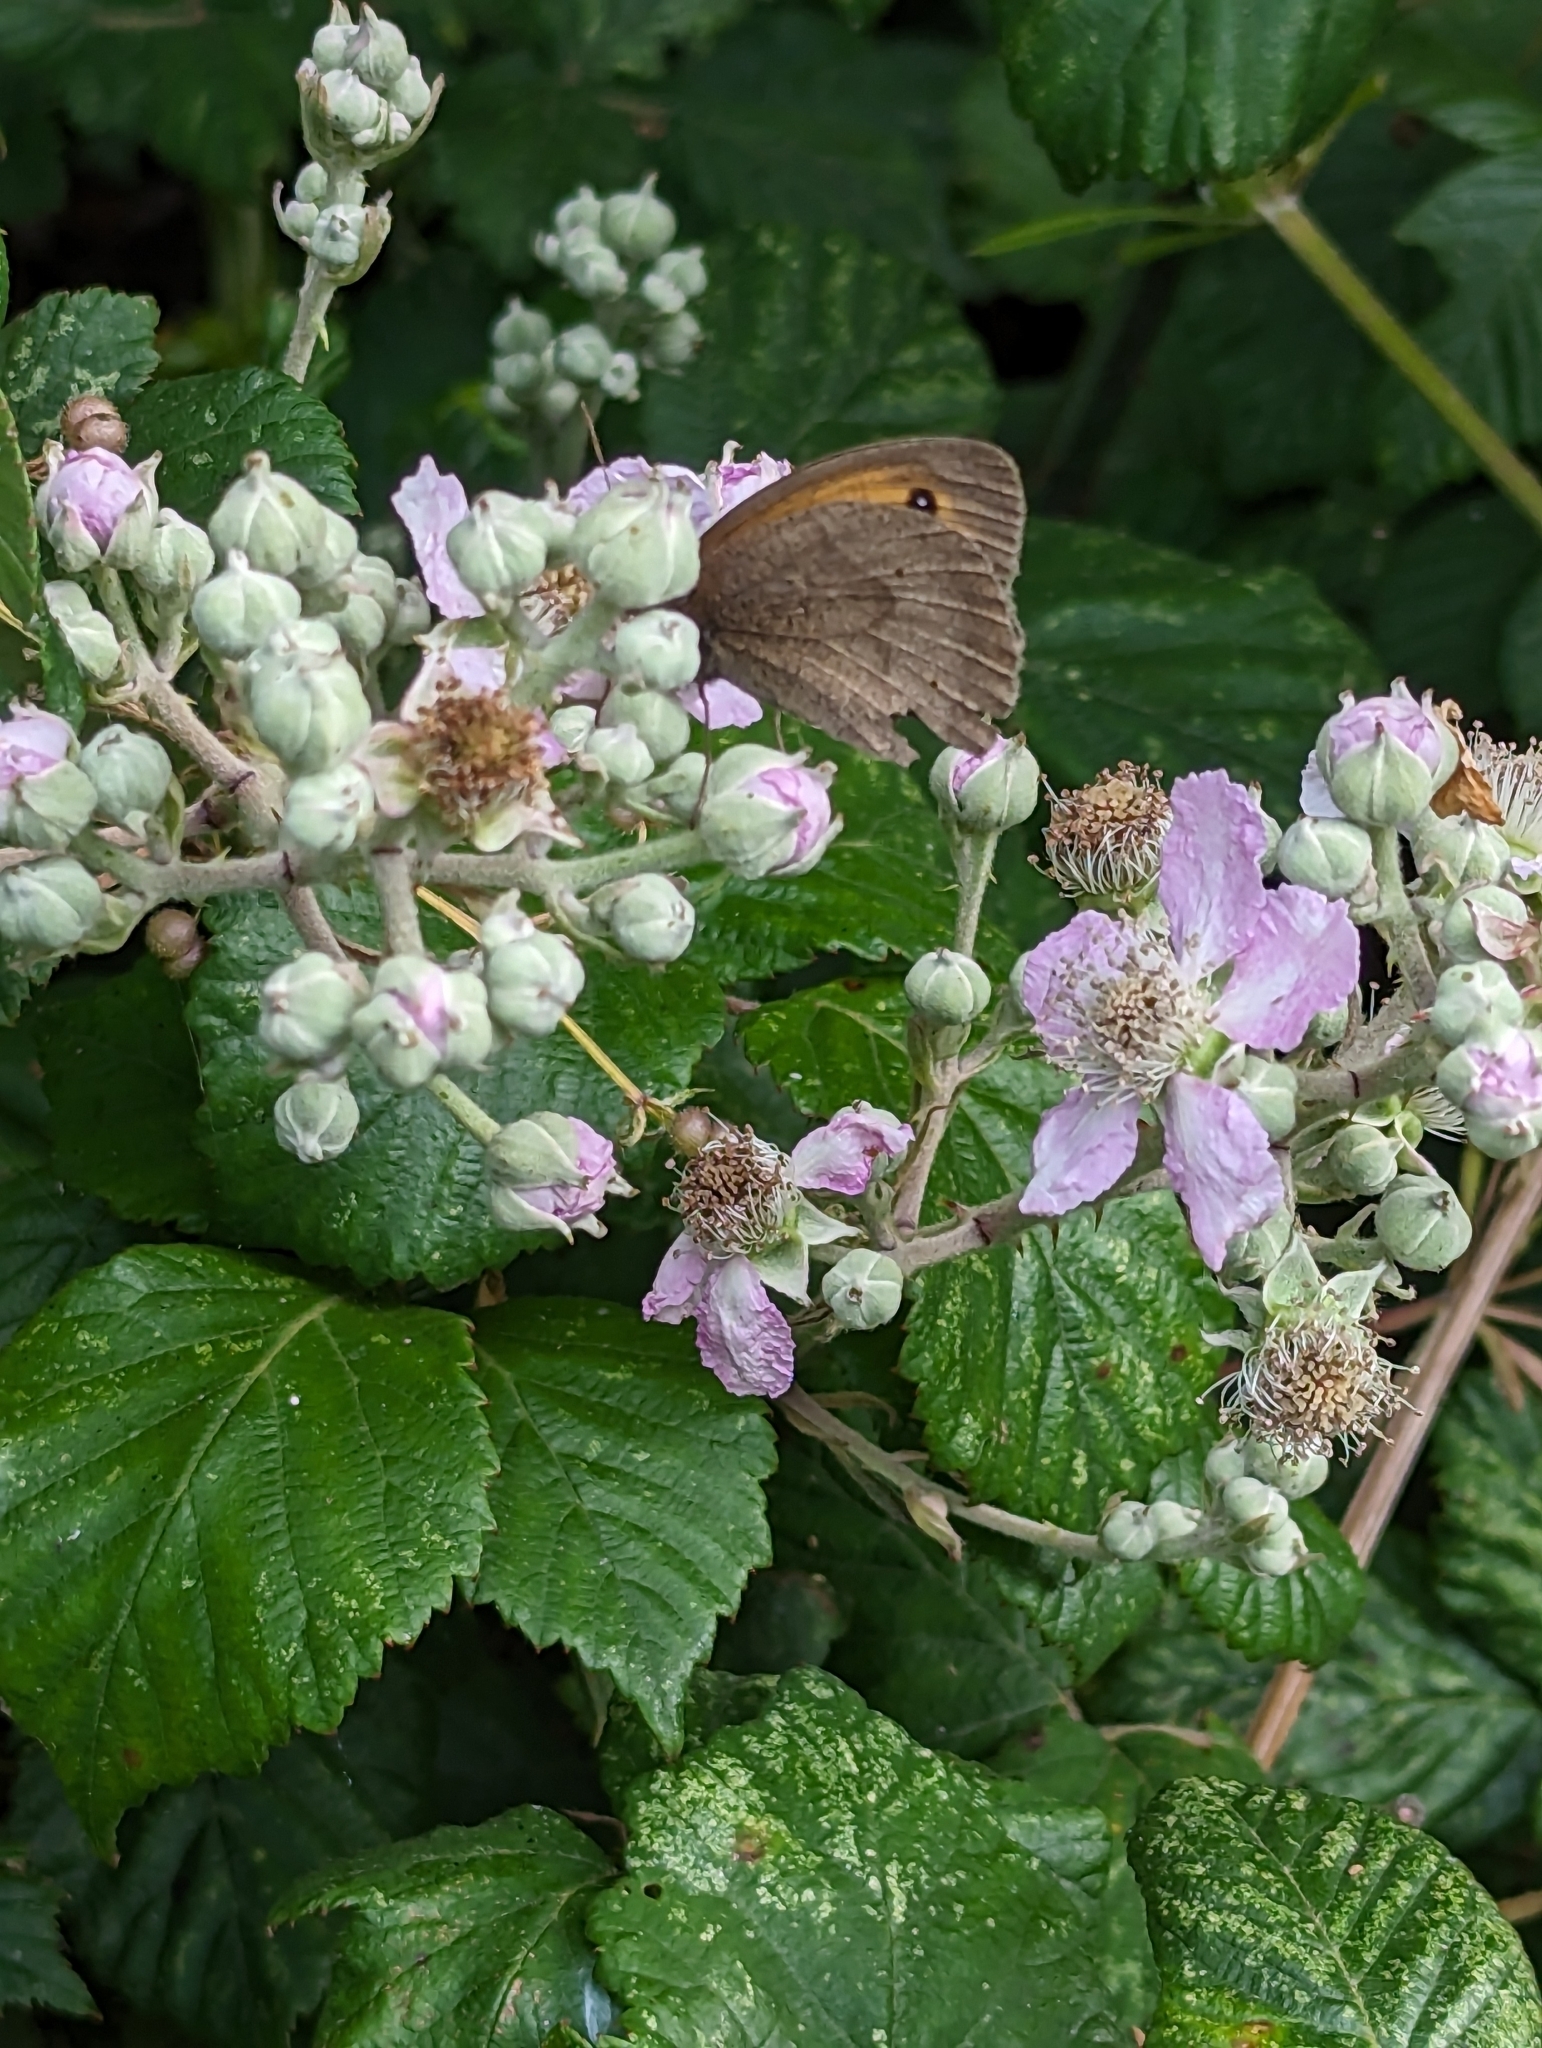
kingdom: Animalia
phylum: Arthropoda
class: Insecta
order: Lepidoptera
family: Nymphalidae
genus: Maniola
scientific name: Maniola jurtina
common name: Meadow brown
